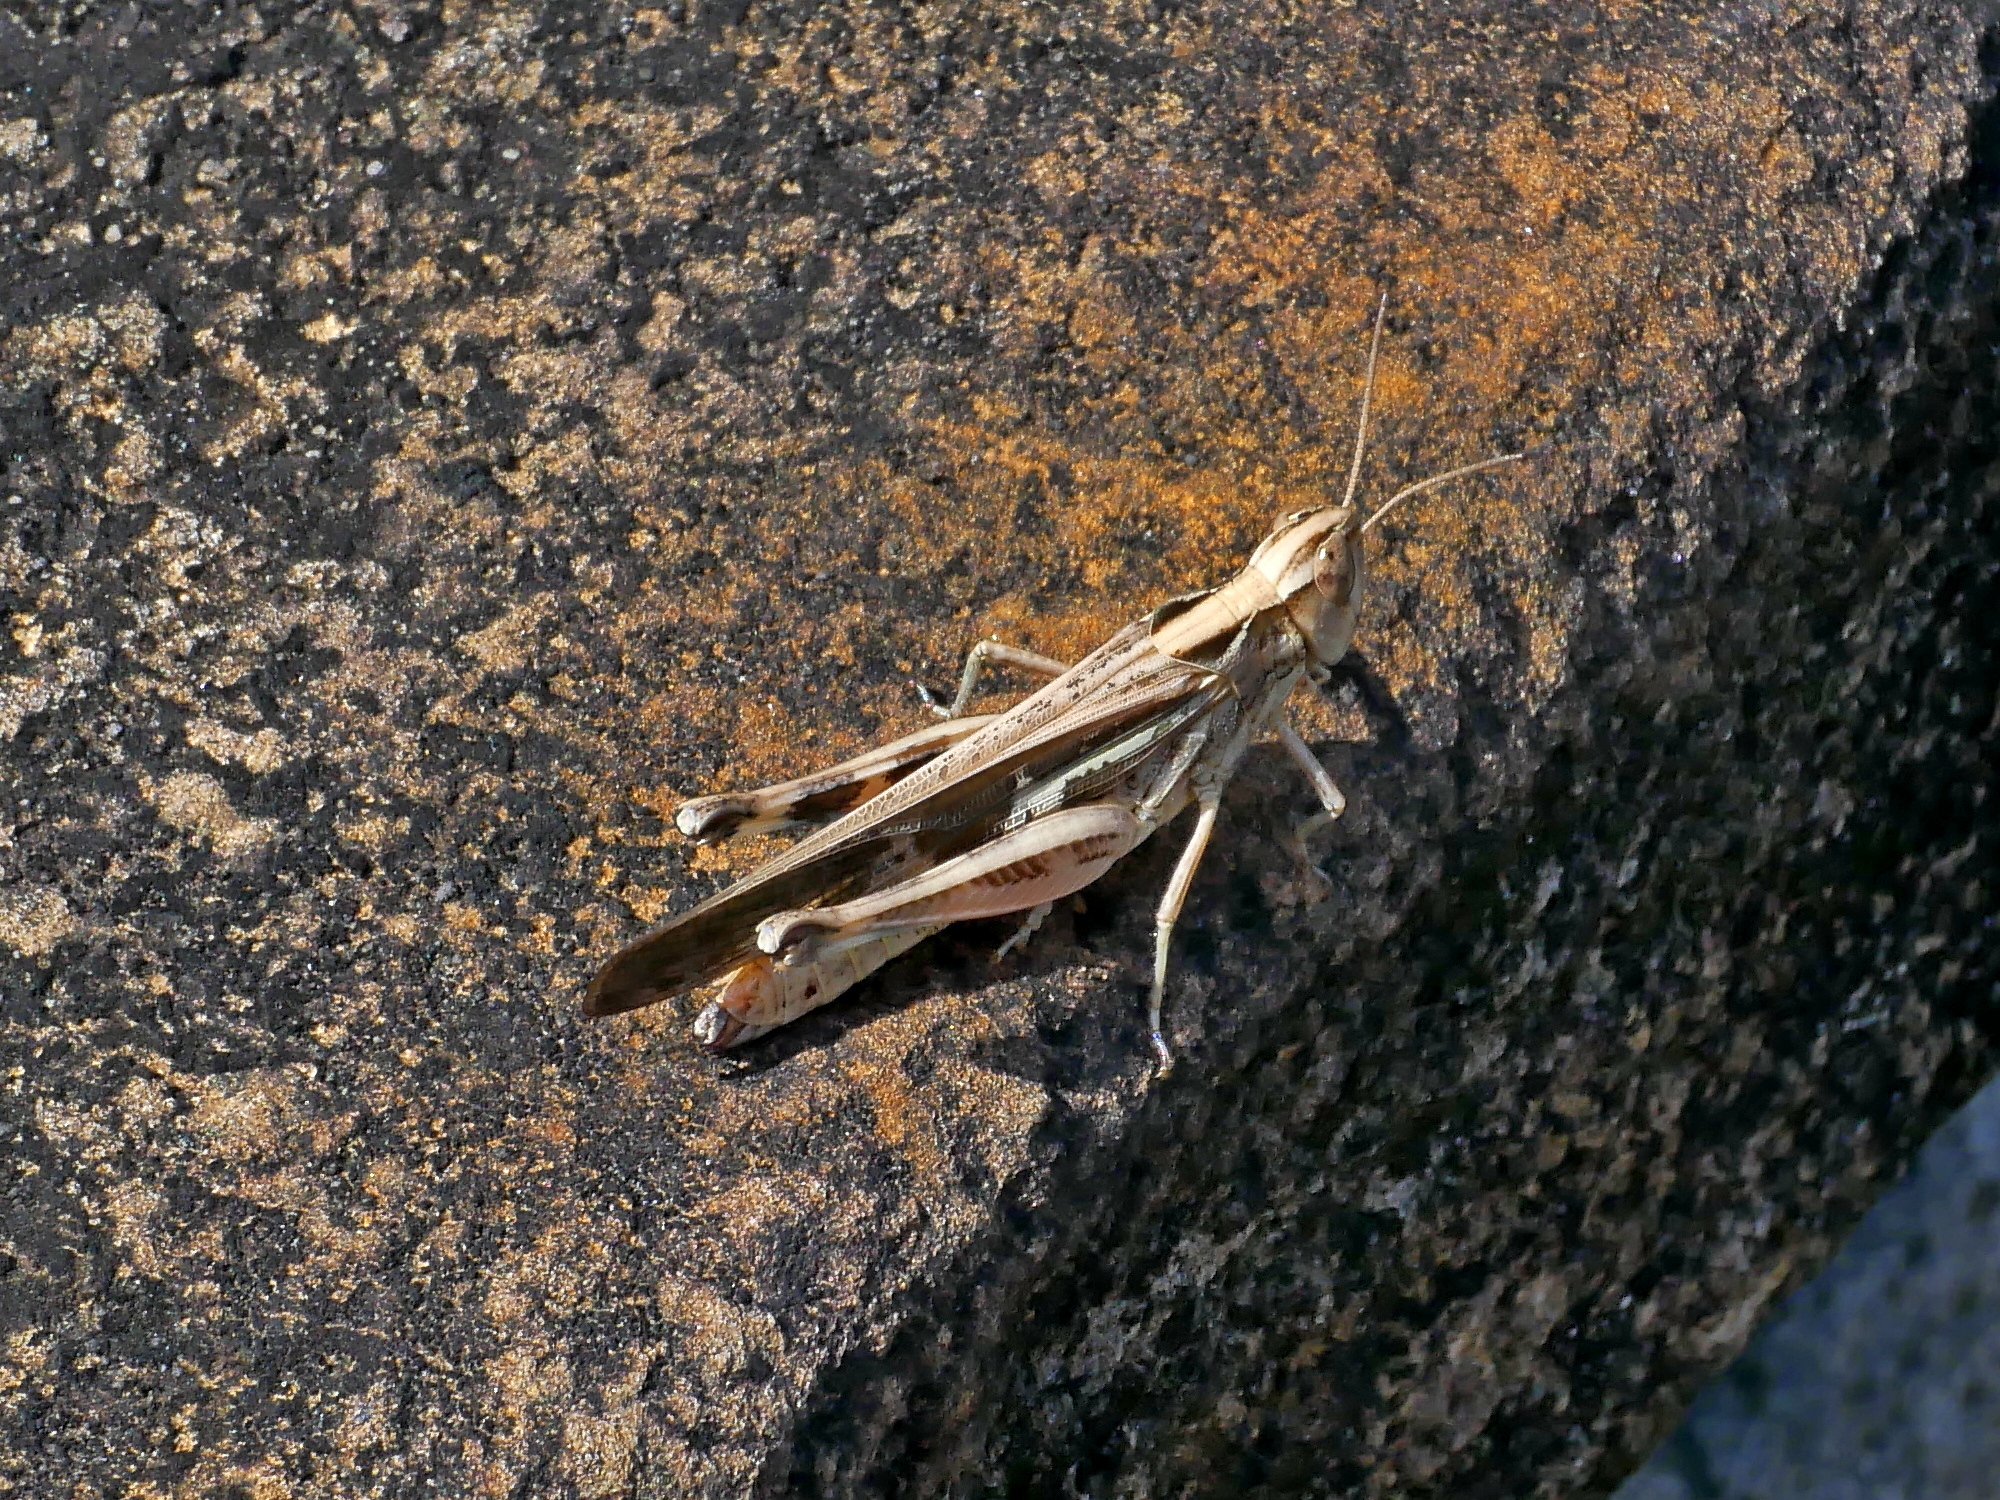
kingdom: Animalia
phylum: Arthropoda
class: Insecta
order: Orthoptera
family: Acrididae
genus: Aiolopus
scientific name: Aiolopus thalassinus
